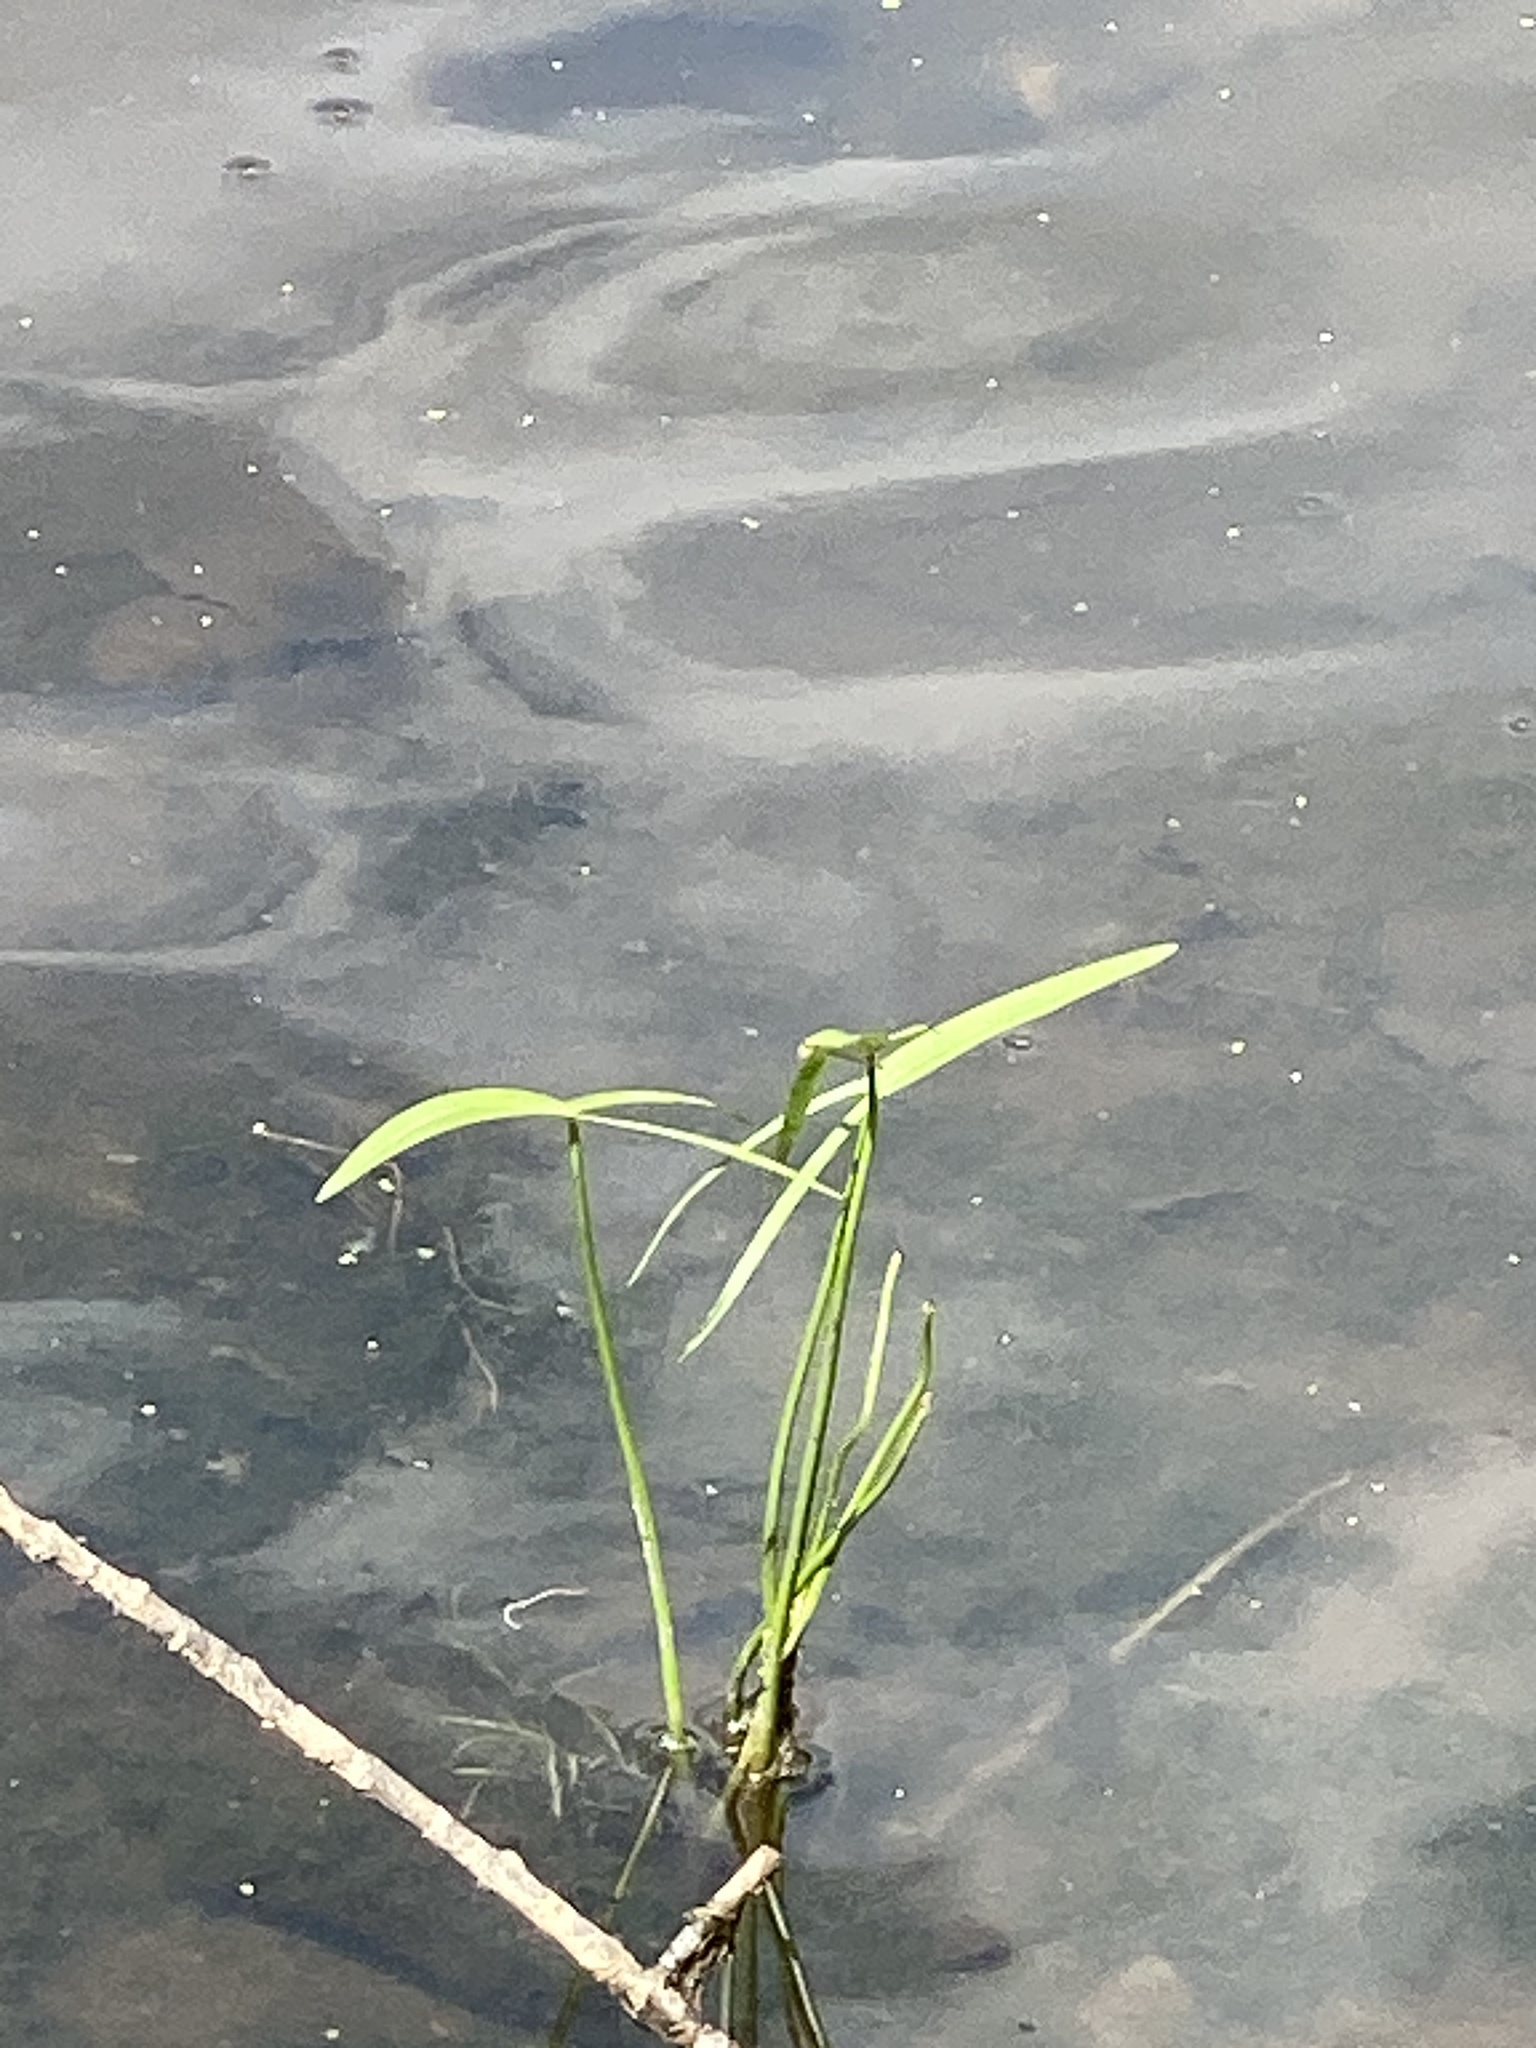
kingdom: Plantae
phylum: Tracheophyta
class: Liliopsida
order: Alismatales
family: Alismataceae
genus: Sagittaria
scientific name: Sagittaria latifolia
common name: Duck-potato
